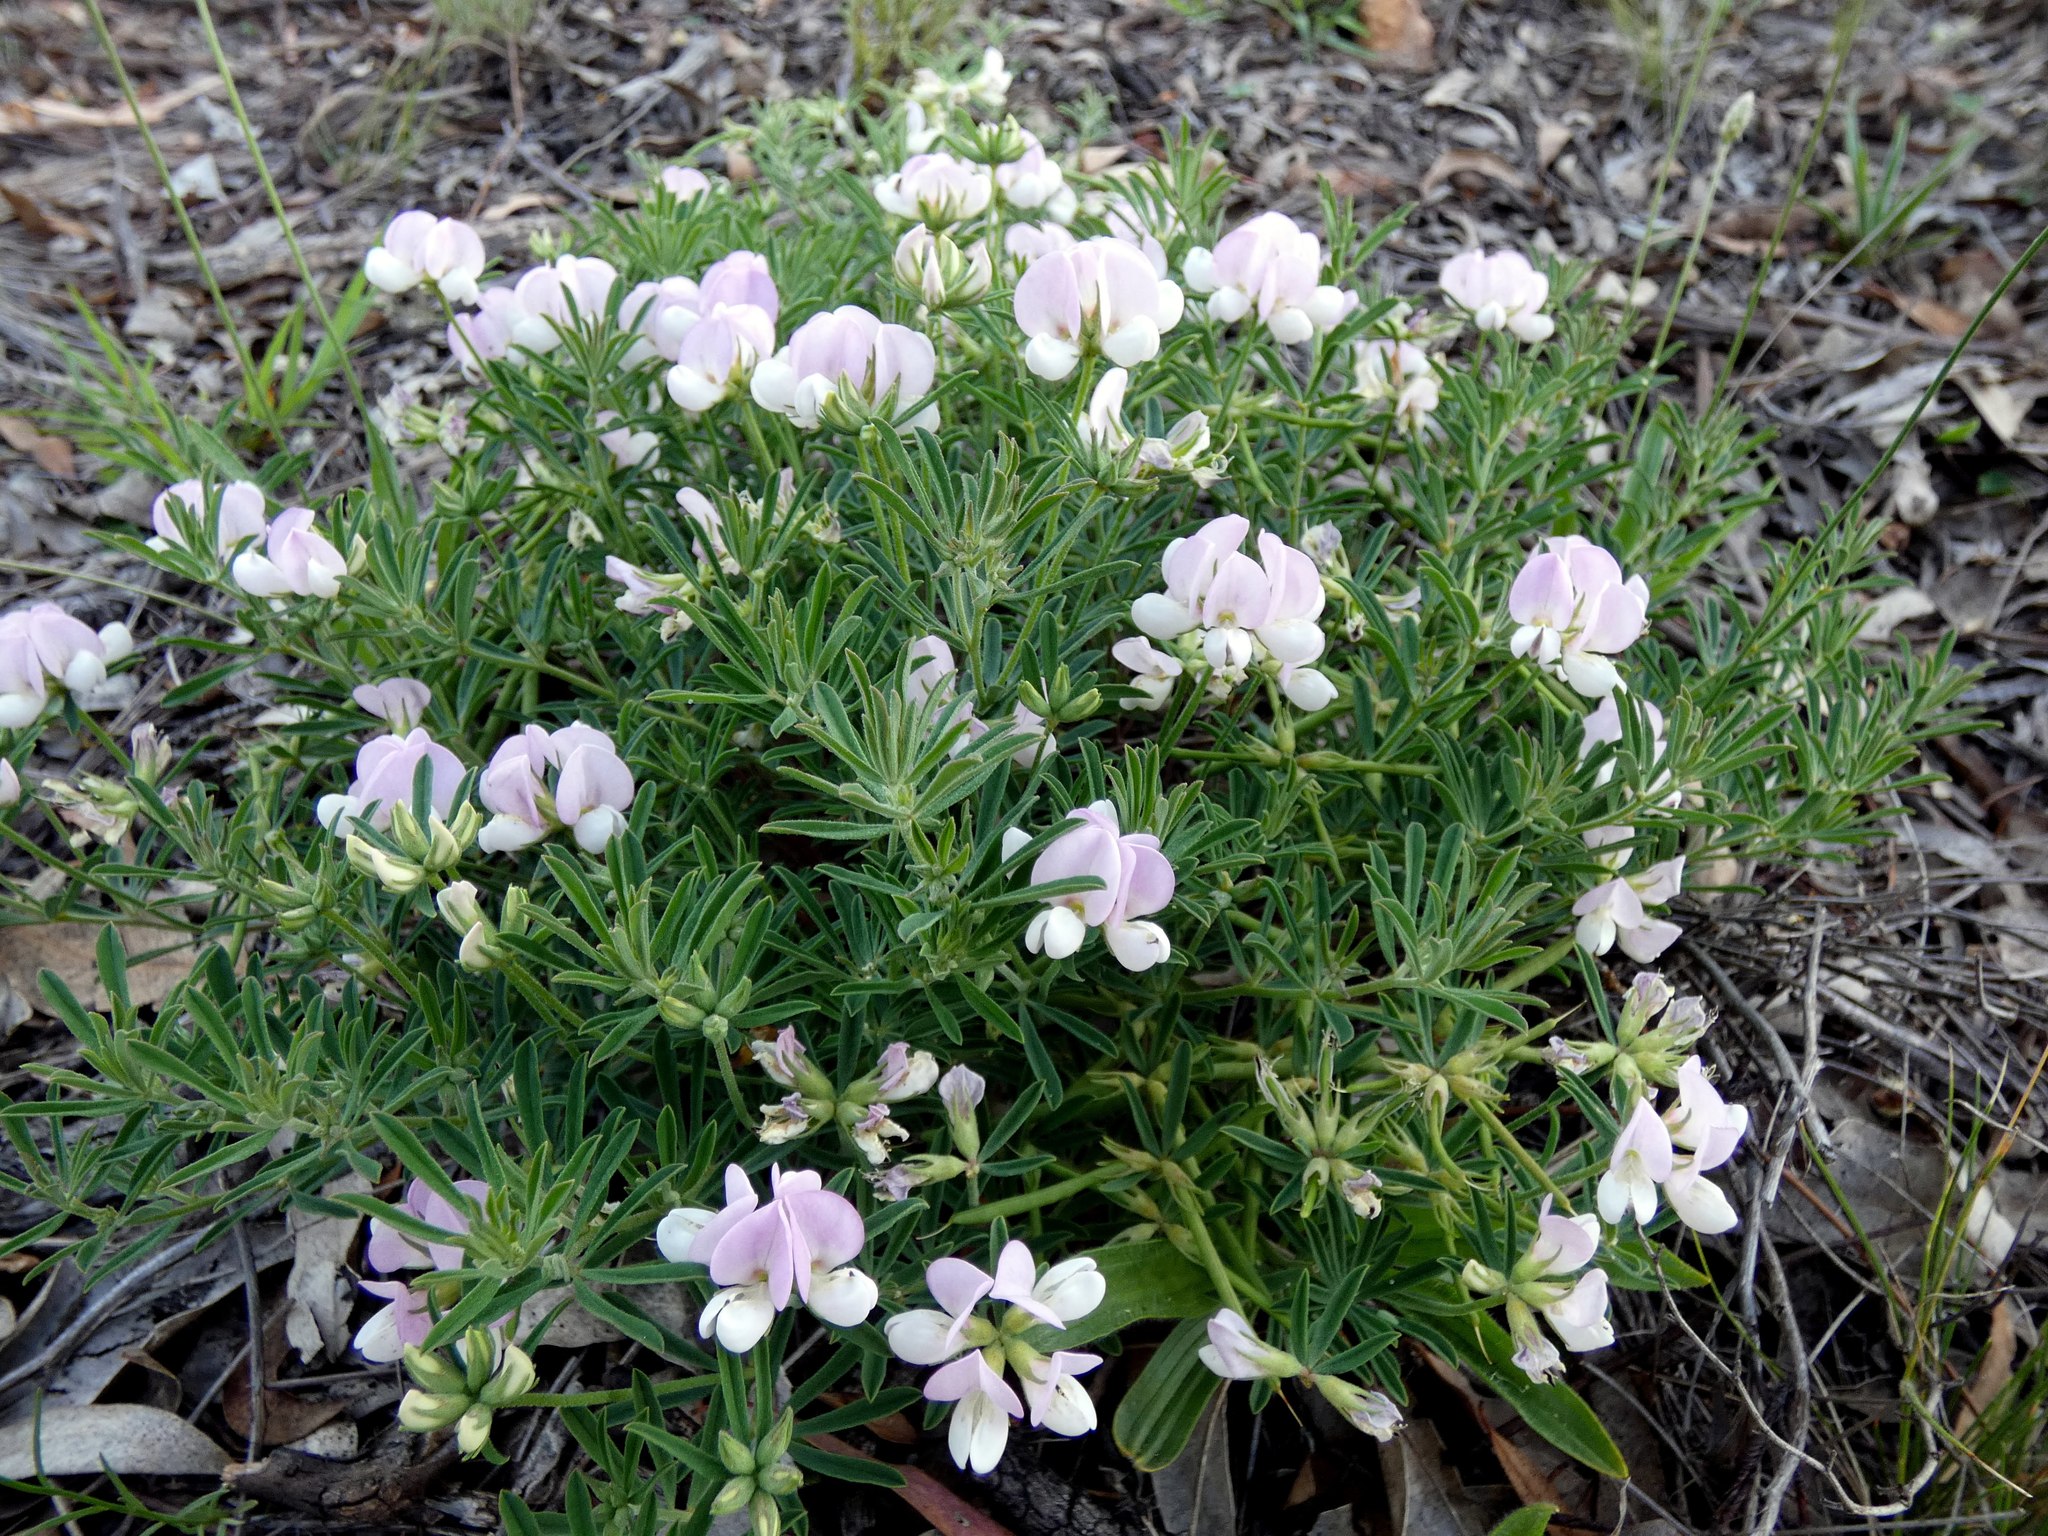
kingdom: Plantae
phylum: Tracheophyta
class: Magnoliopsida
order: Fabales
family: Fabaceae
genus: Lotus
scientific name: Lotus australis
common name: Australian trefoil
